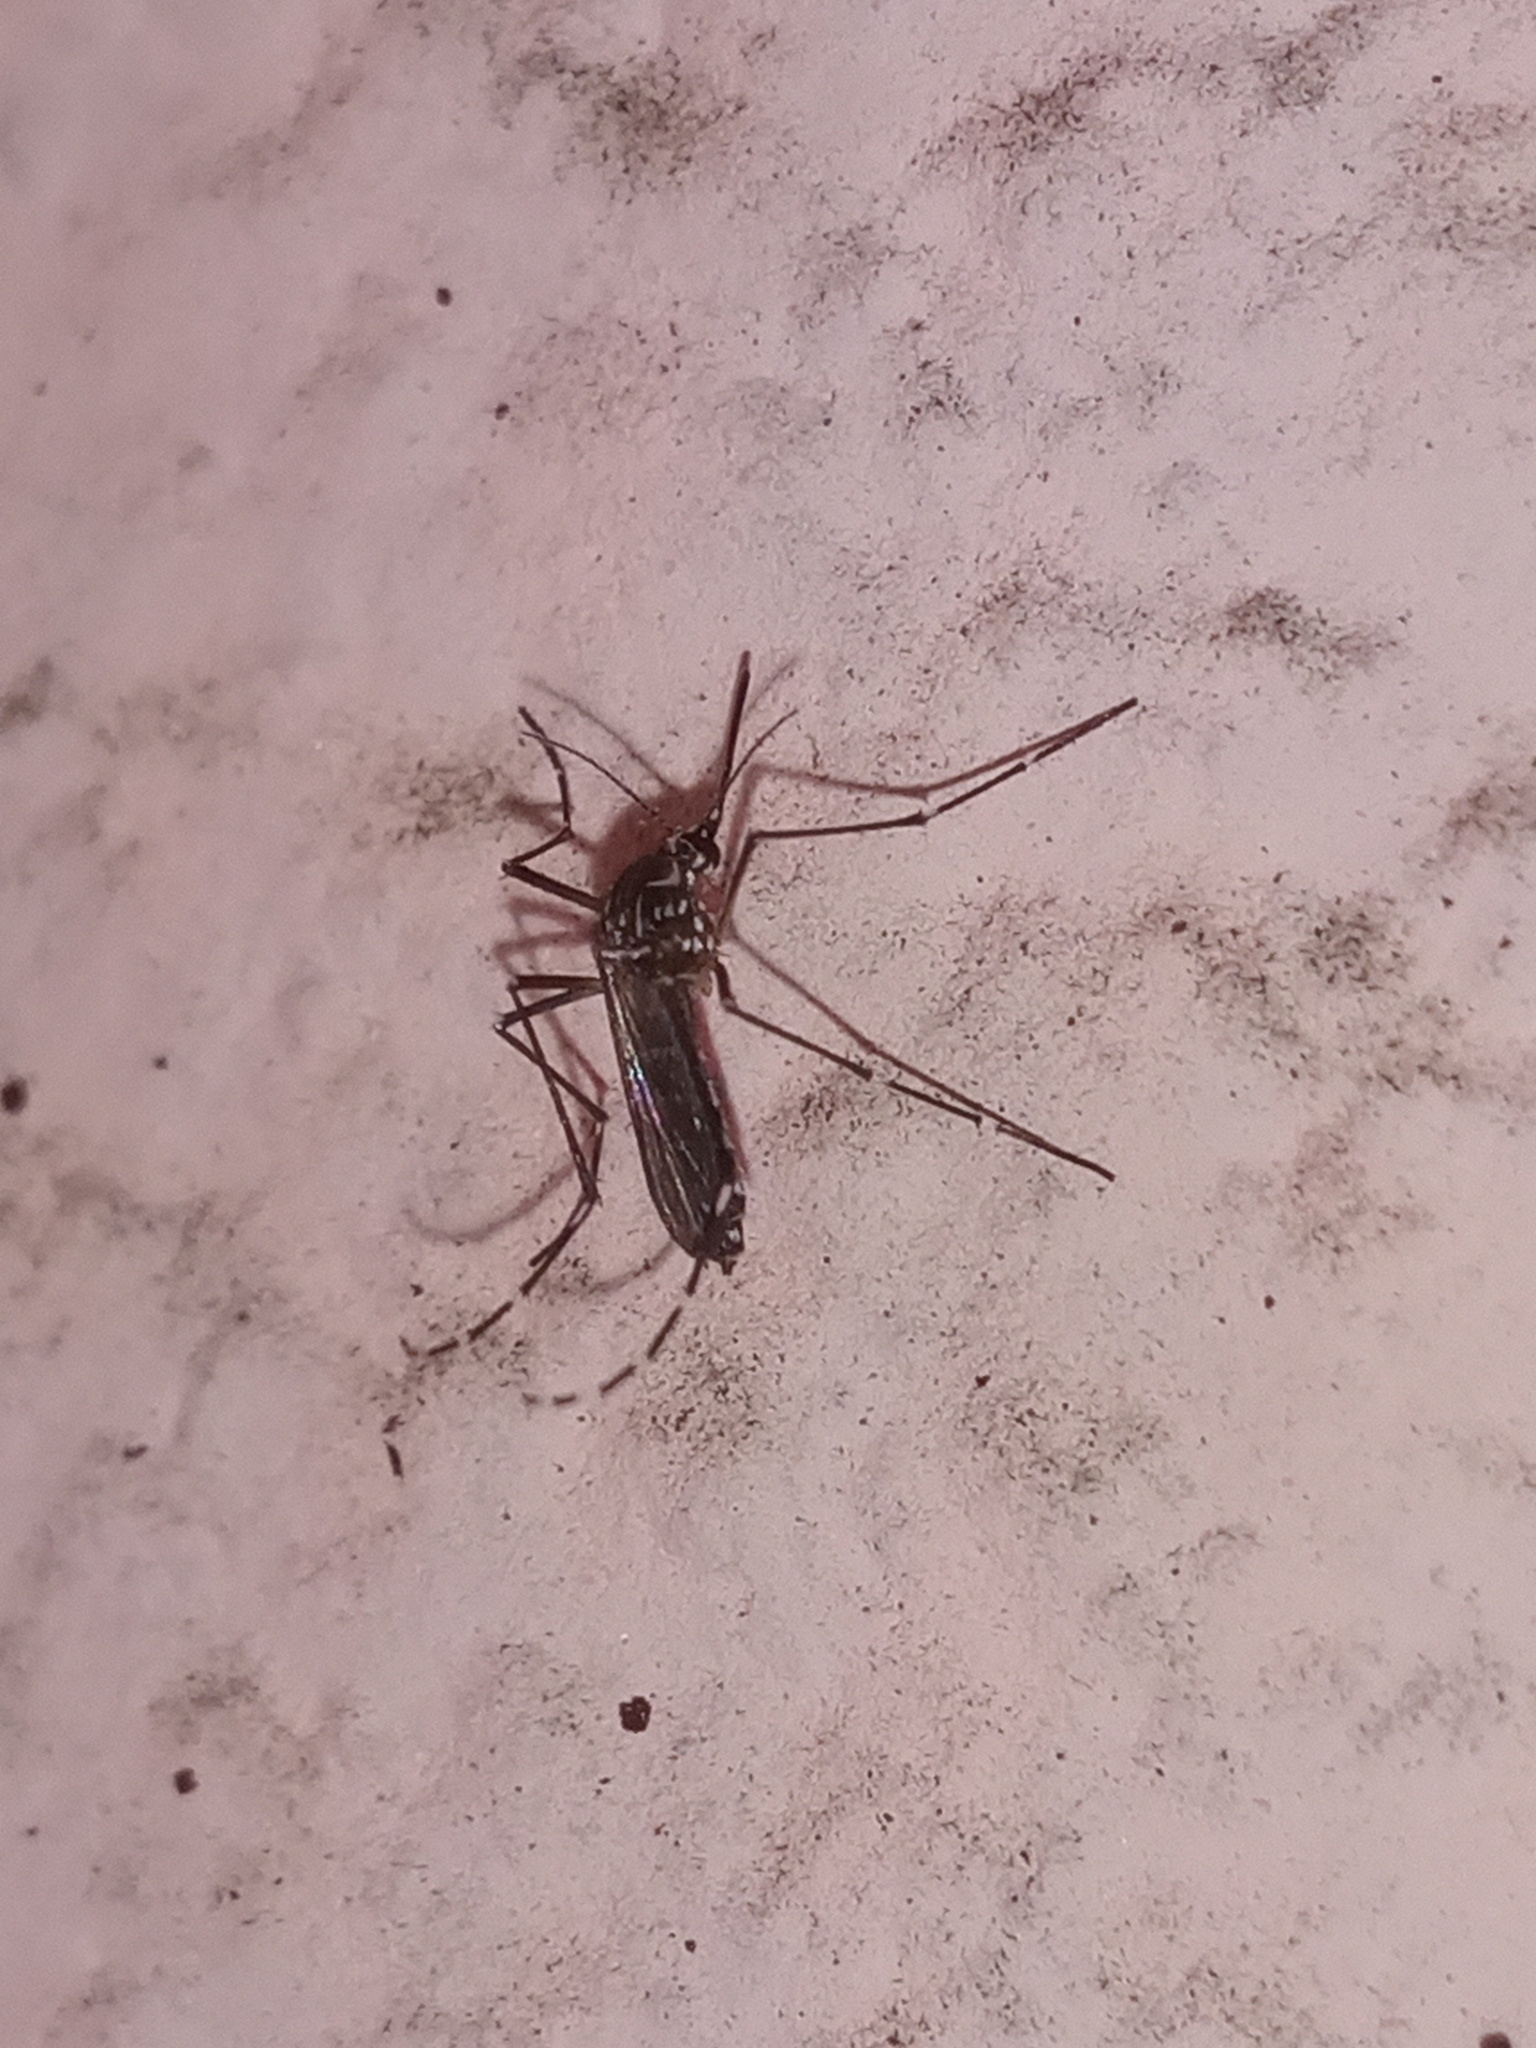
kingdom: Animalia
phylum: Arthropoda
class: Insecta
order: Diptera
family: Culicidae
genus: Aedes
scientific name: Aedes aegypti
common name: Yellow fever mosquito
